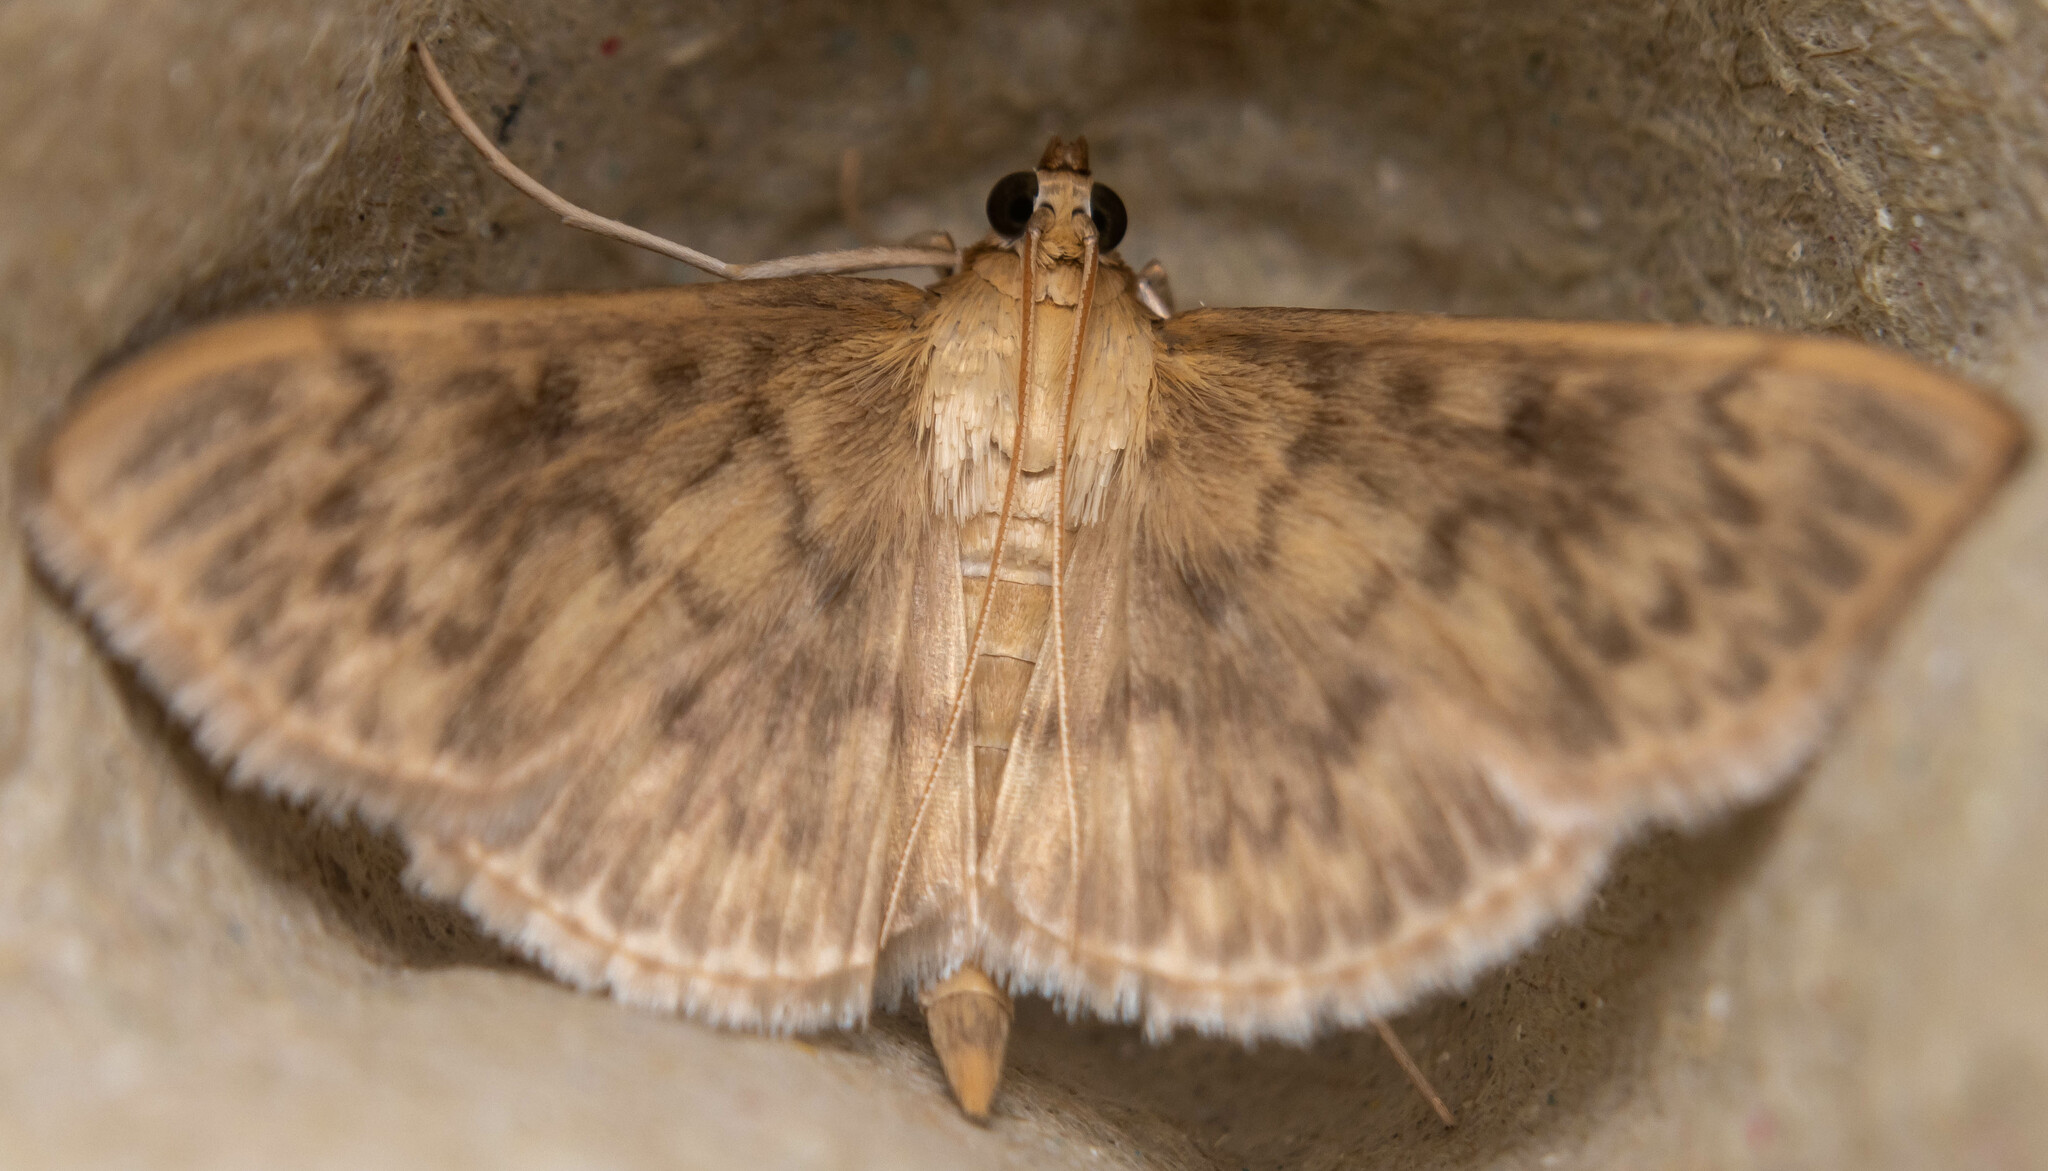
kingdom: Animalia
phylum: Arthropoda
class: Insecta
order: Lepidoptera
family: Crambidae
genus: Patania
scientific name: Patania ruralis
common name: Mother of pearl
